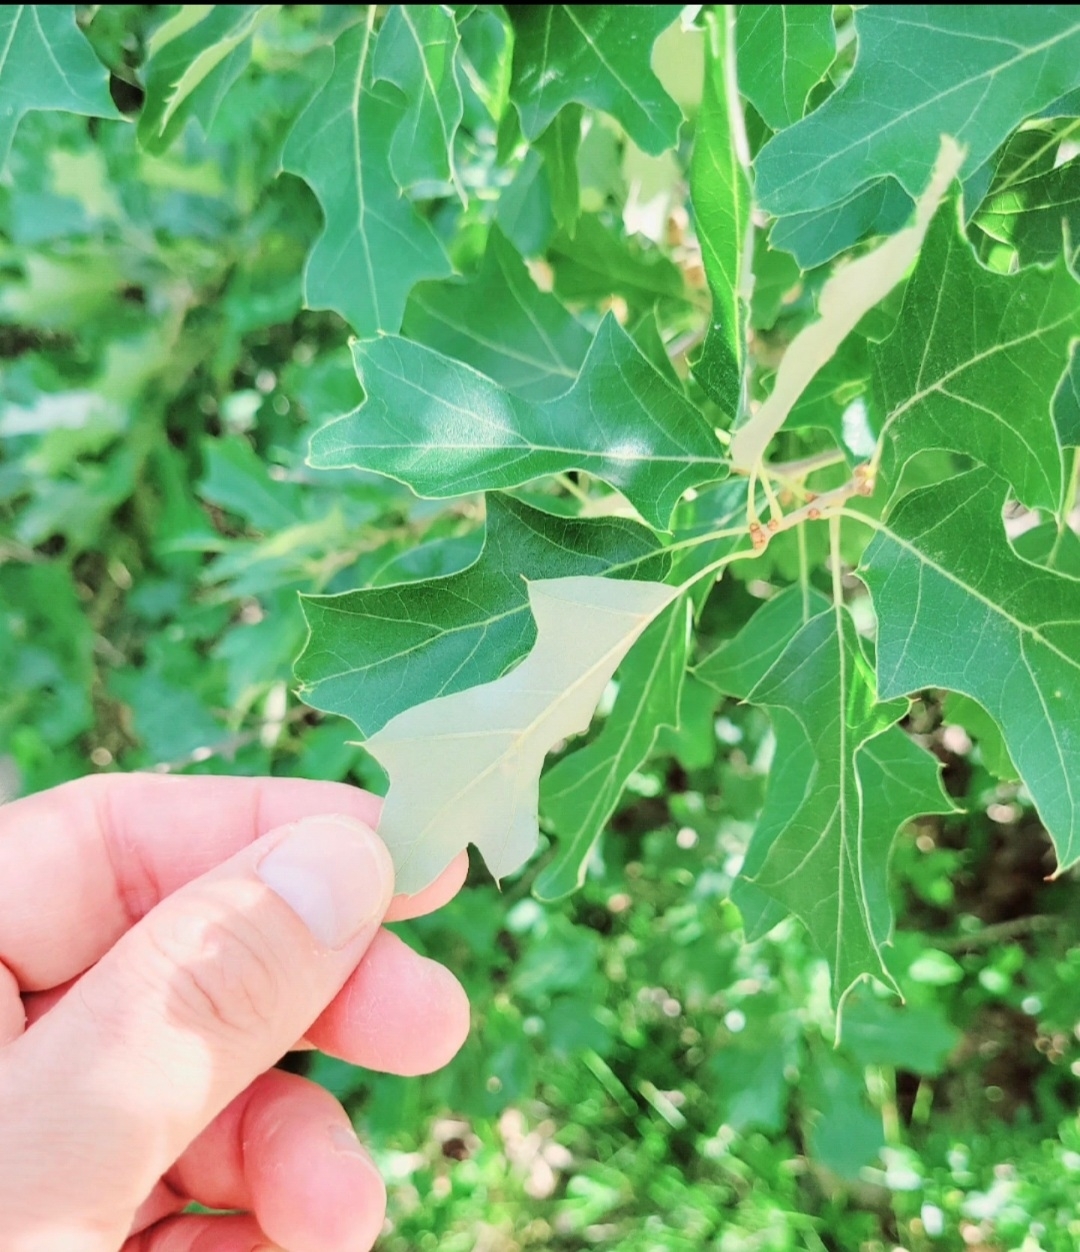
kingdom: Plantae
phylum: Tracheophyta
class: Magnoliopsida
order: Fagales
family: Fagaceae
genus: Quercus
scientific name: Quercus ilicifolia
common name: Bear oak
